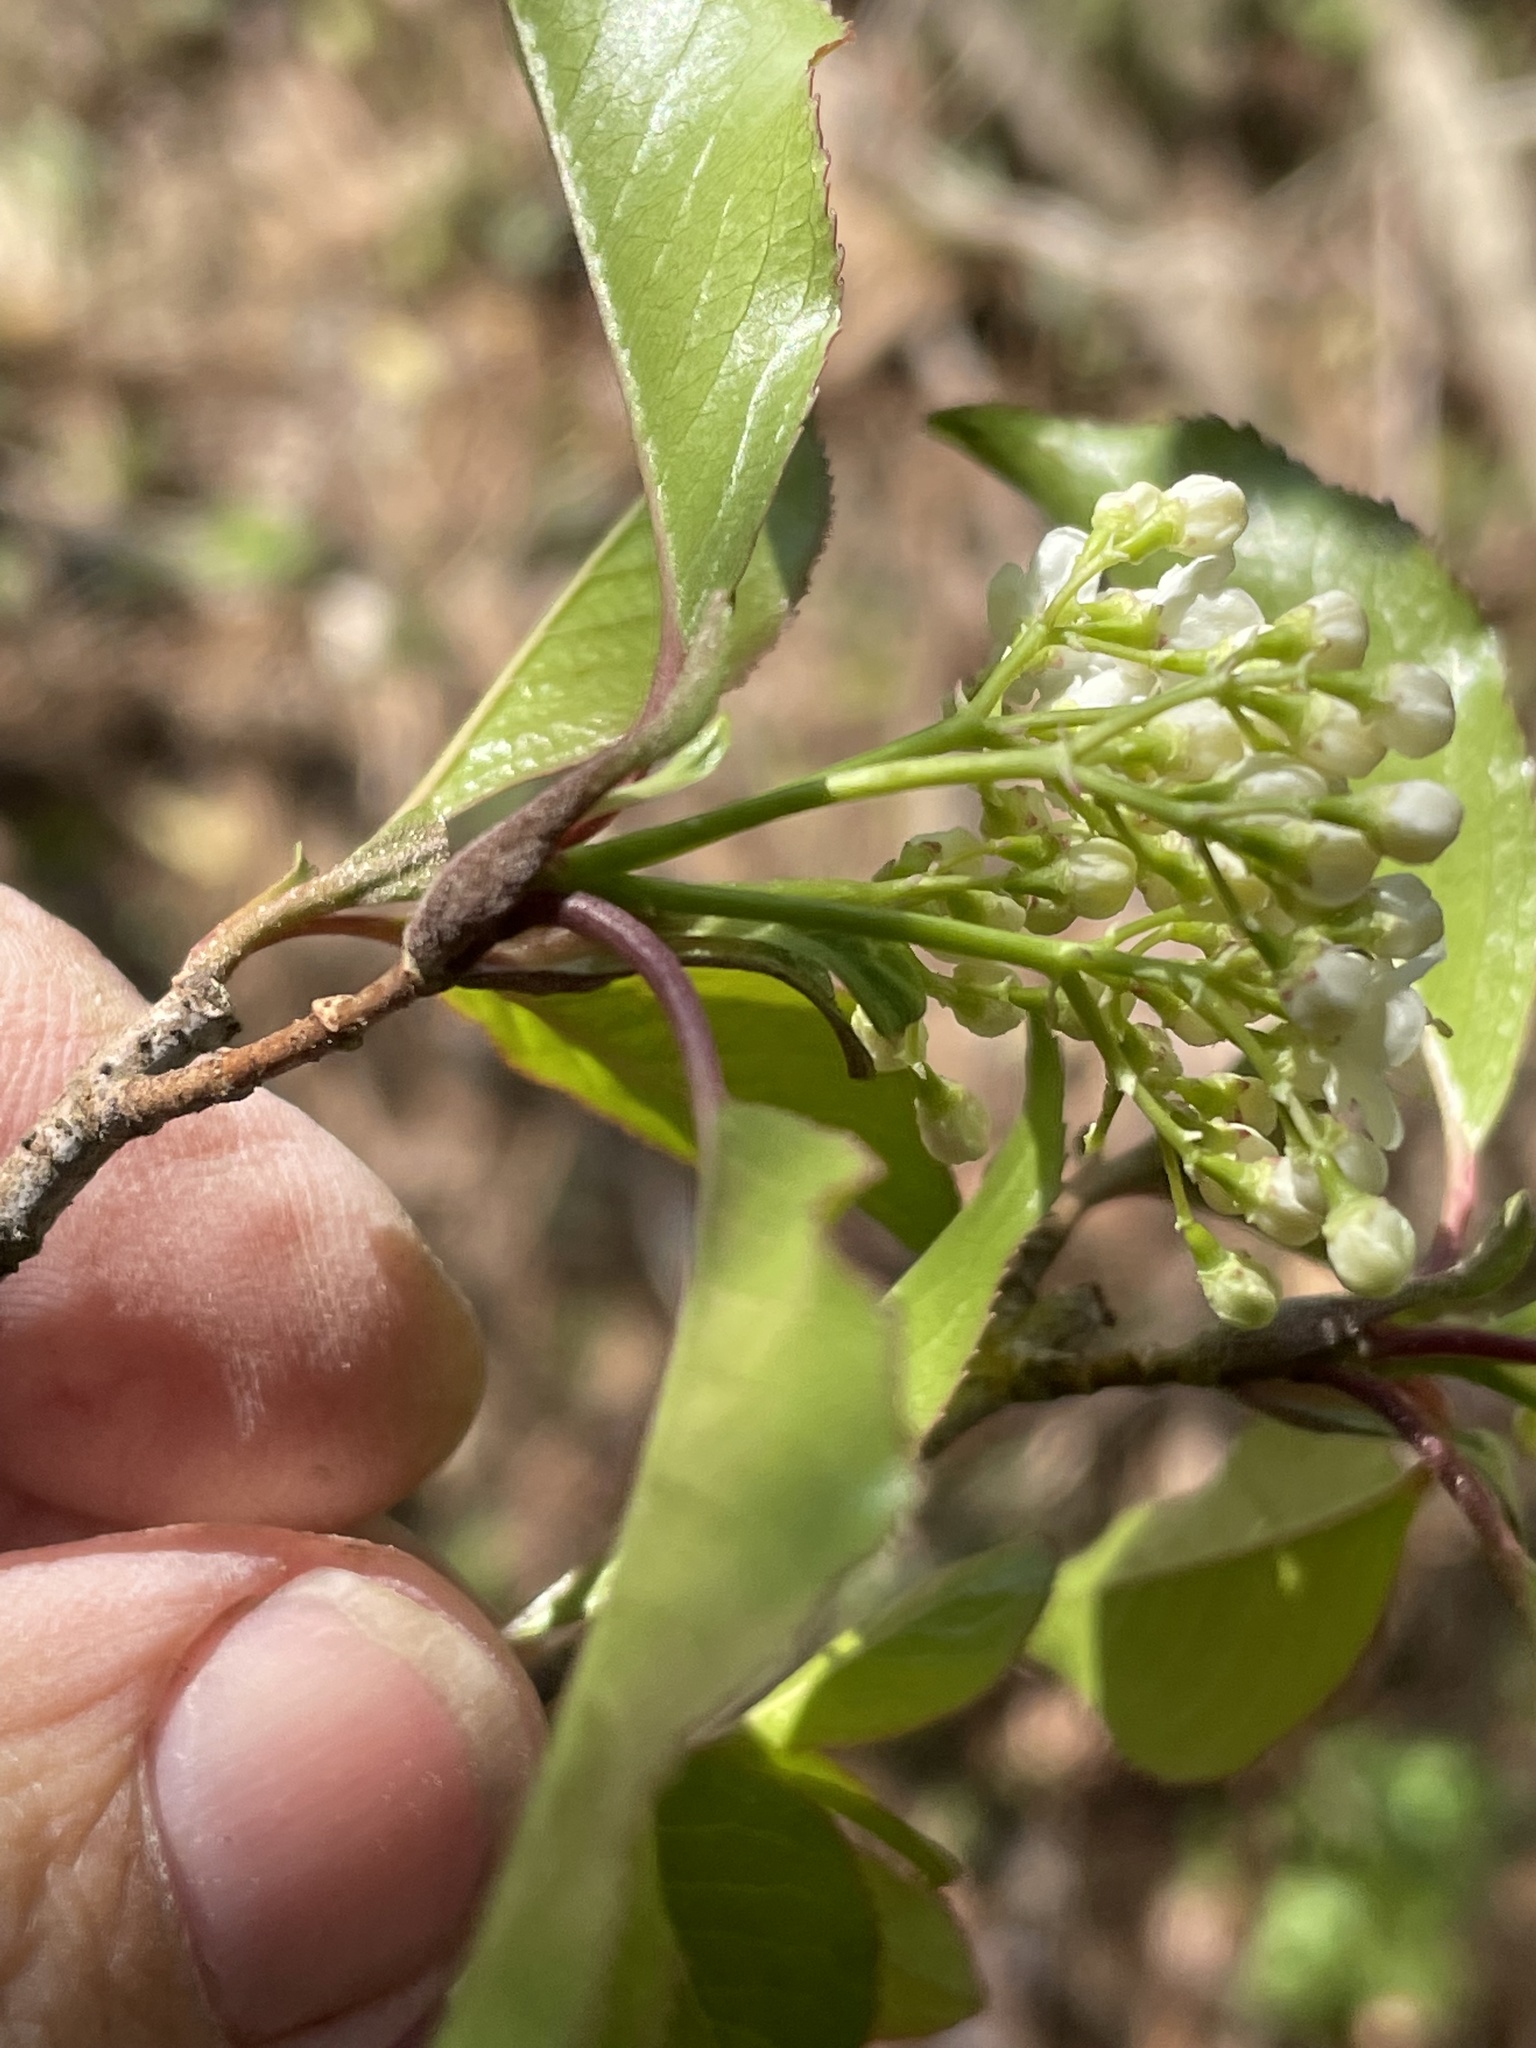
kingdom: Plantae
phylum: Tracheophyta
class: Magnoliopsida
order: Dipsacales
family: Viburnaceae
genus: Viburnum
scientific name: Viburnum prunifolium
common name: Black haw
